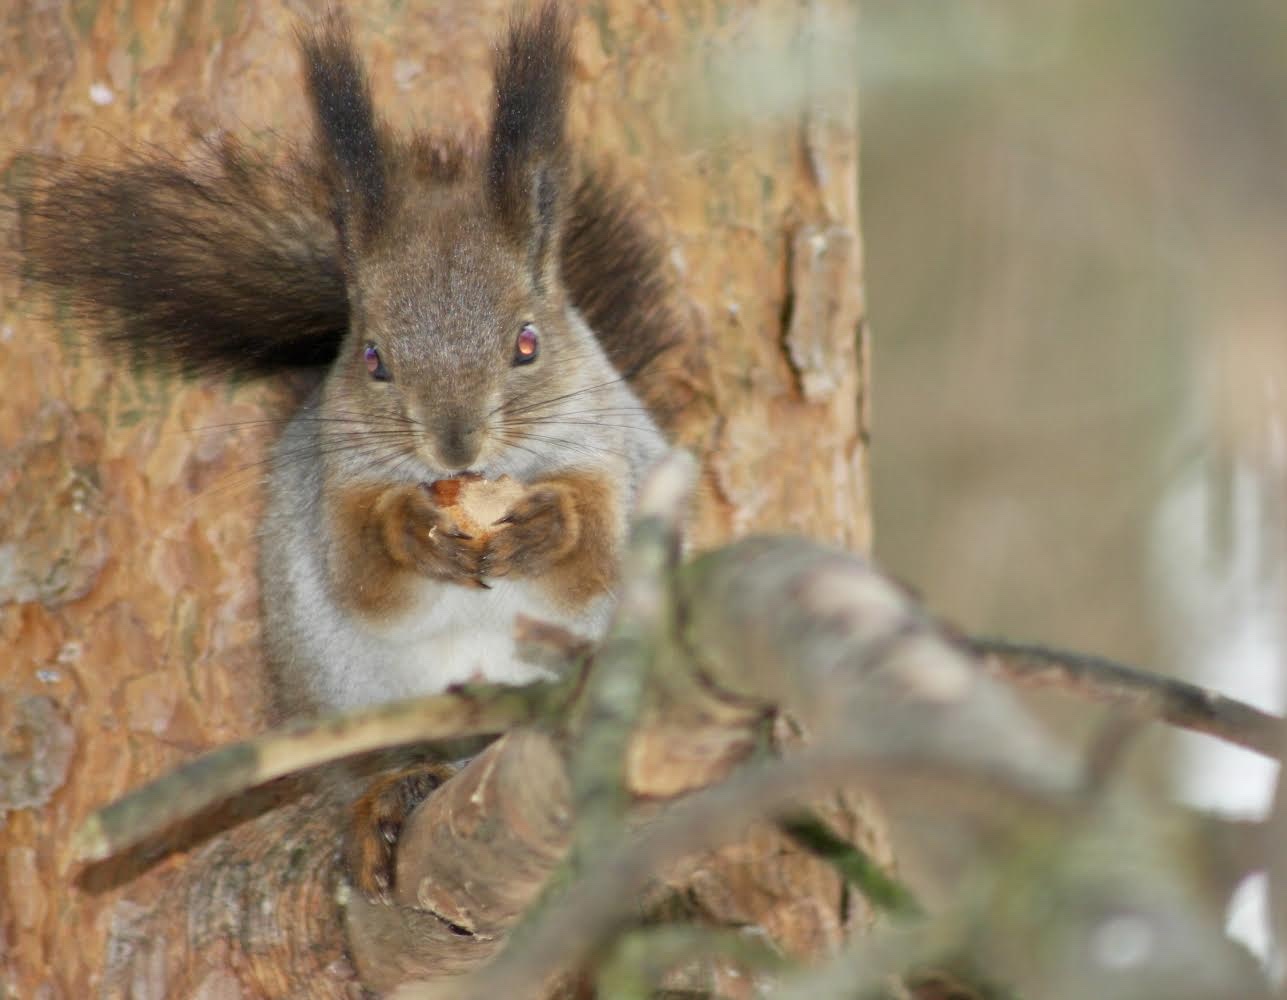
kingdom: Animalia
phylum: Chordata
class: Mammalia
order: Rodentia
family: Sciuridae
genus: Sciurus
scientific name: Sciurus vulgaris
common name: Eurasian red squirrel
